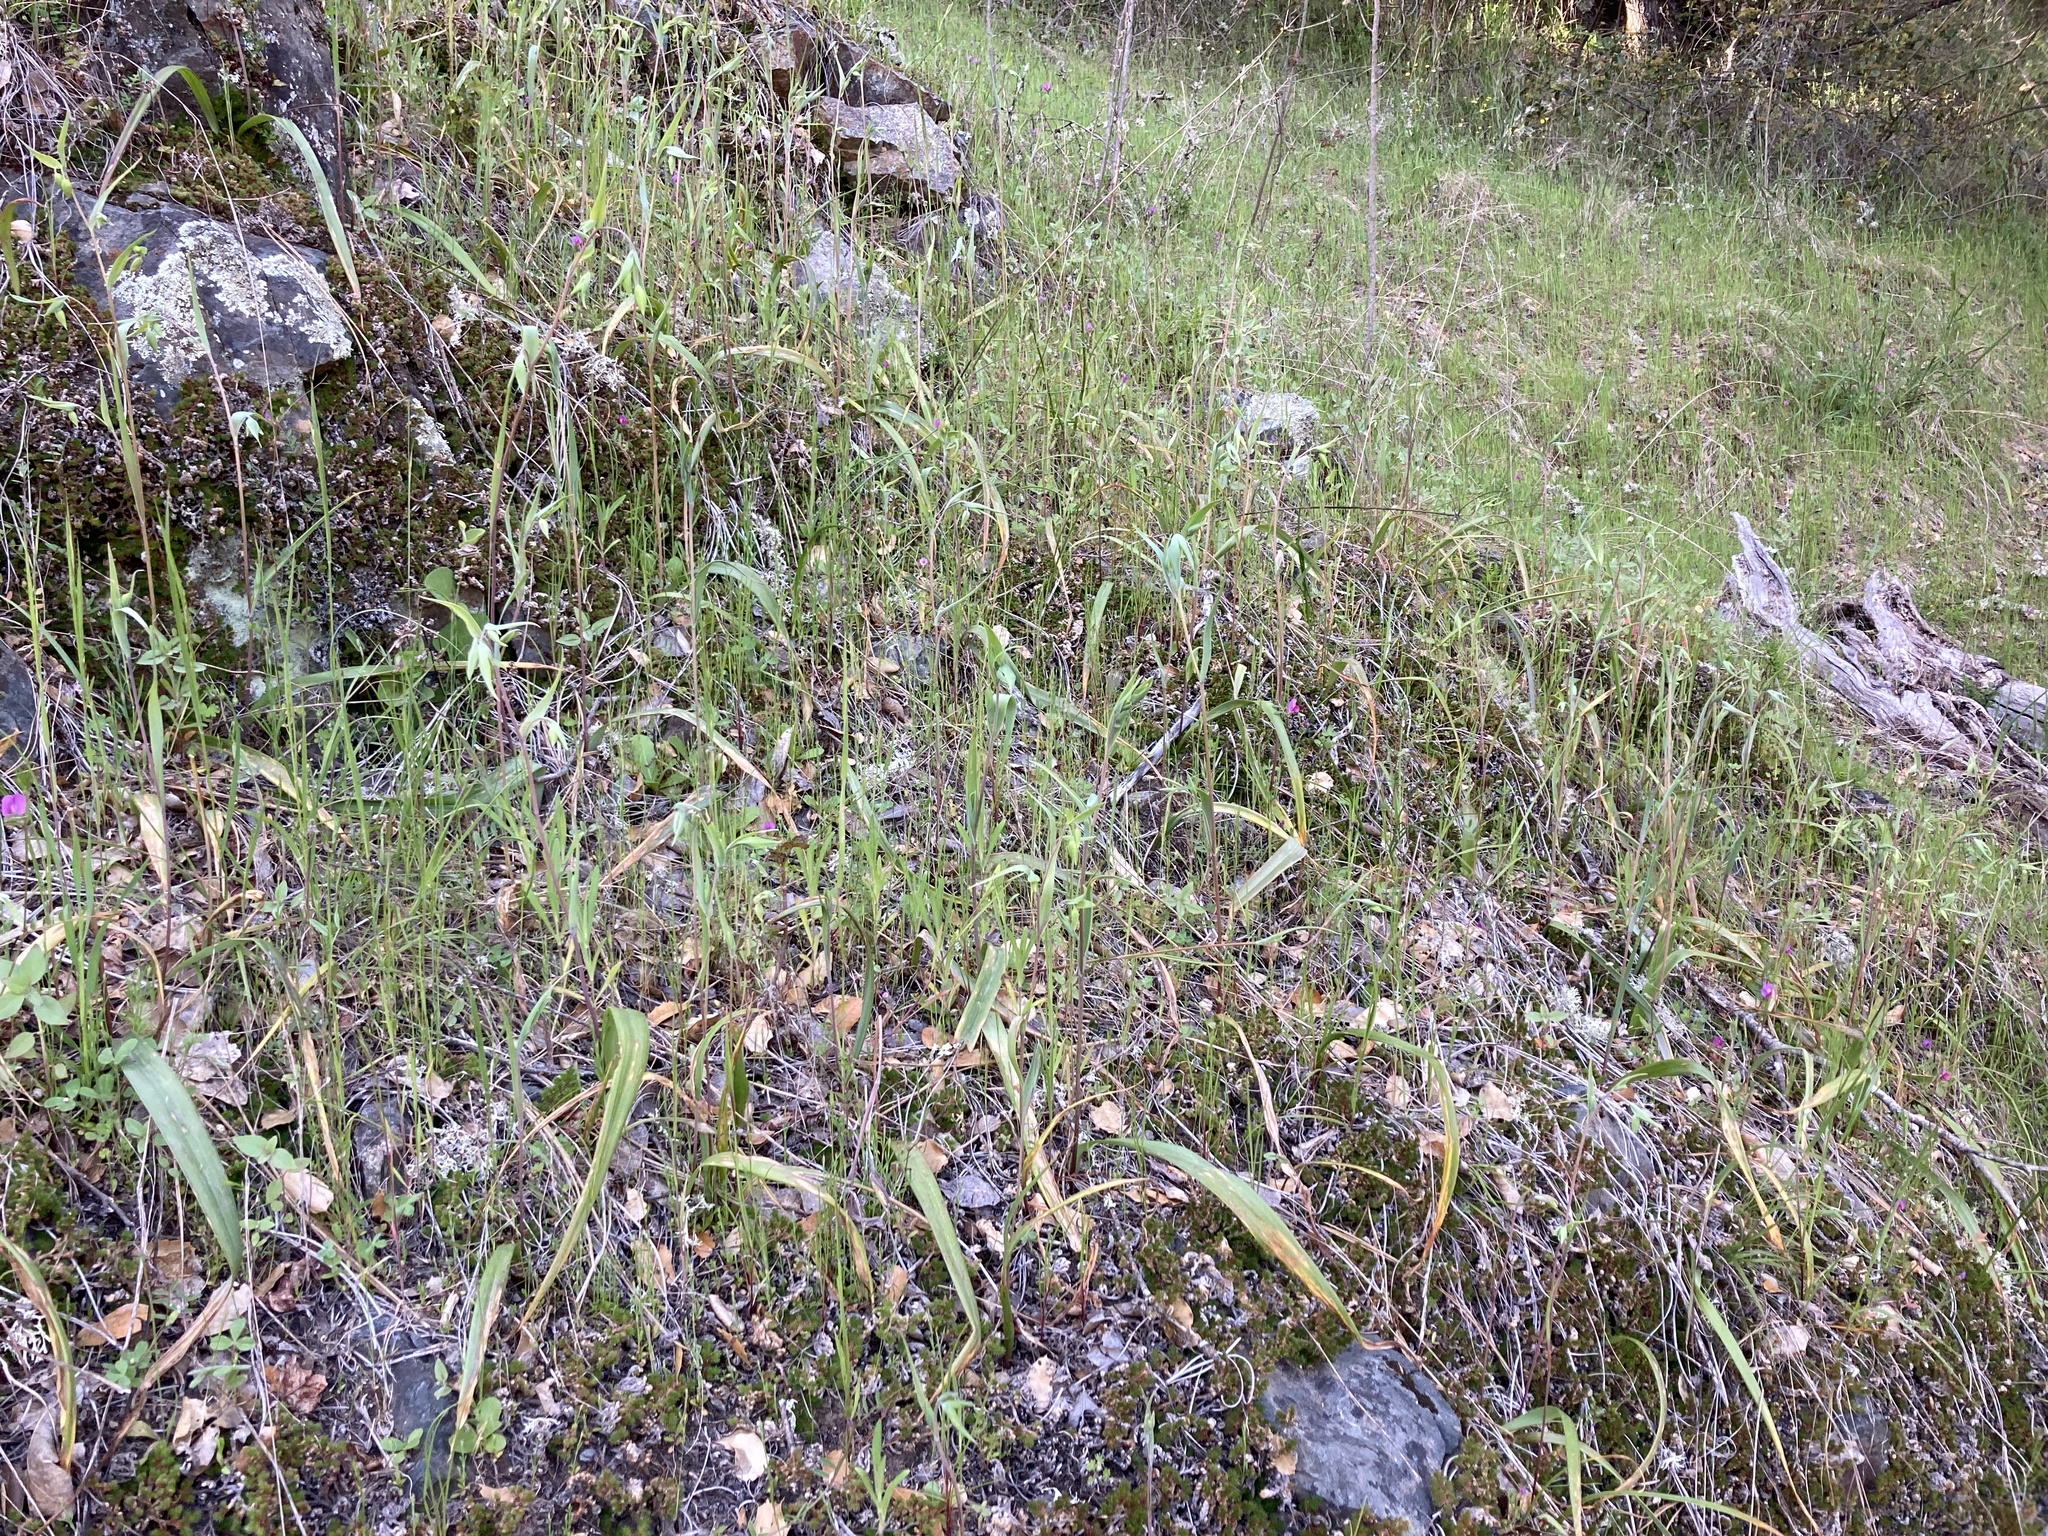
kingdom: Plantae
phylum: Tracheophyta
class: Liliopsida
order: Liliales
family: Liliaceae
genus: Calochortus
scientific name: Calochortus albus
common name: Fairy-lantern
